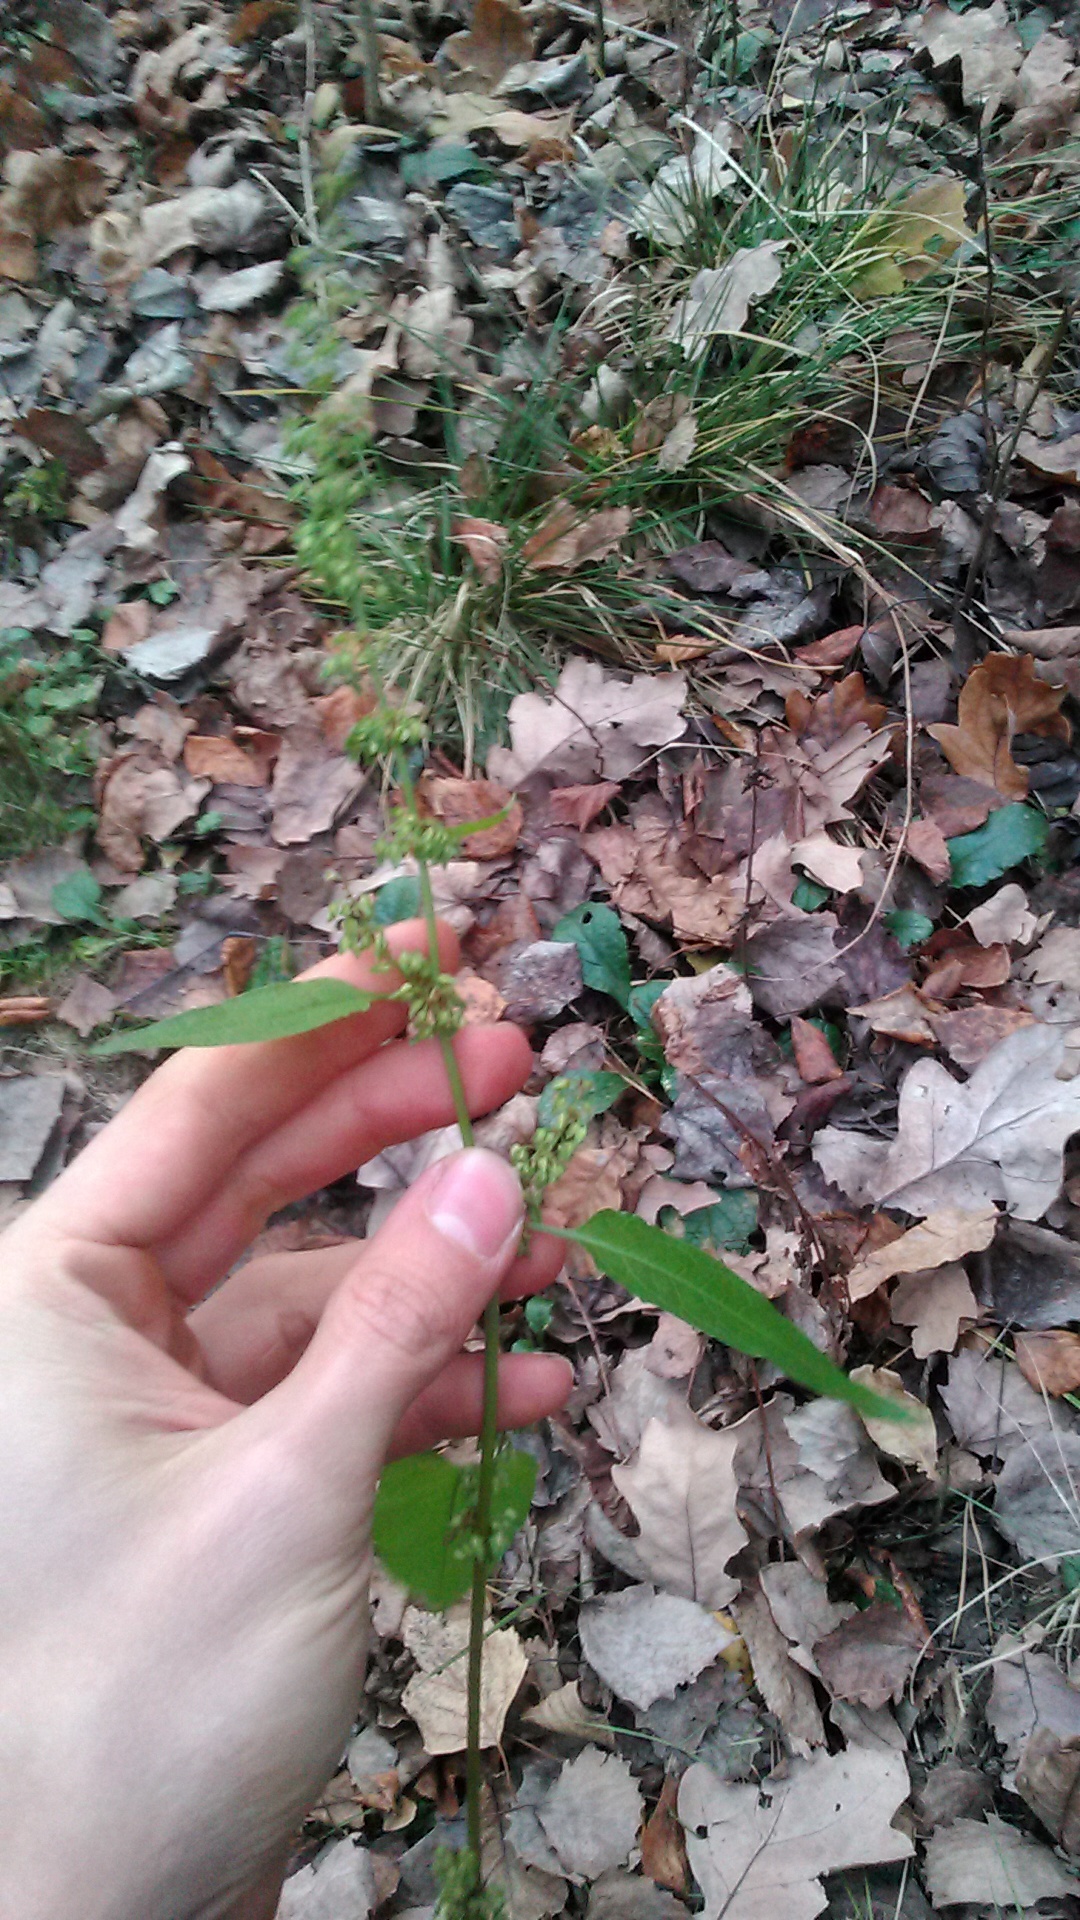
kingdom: Plantae
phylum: Tracheophyta
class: Magnoliopsida
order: Caryophyllales
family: Polygonaceae
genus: Rumex
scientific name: Rumex obtusifolius
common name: Bitter dock
